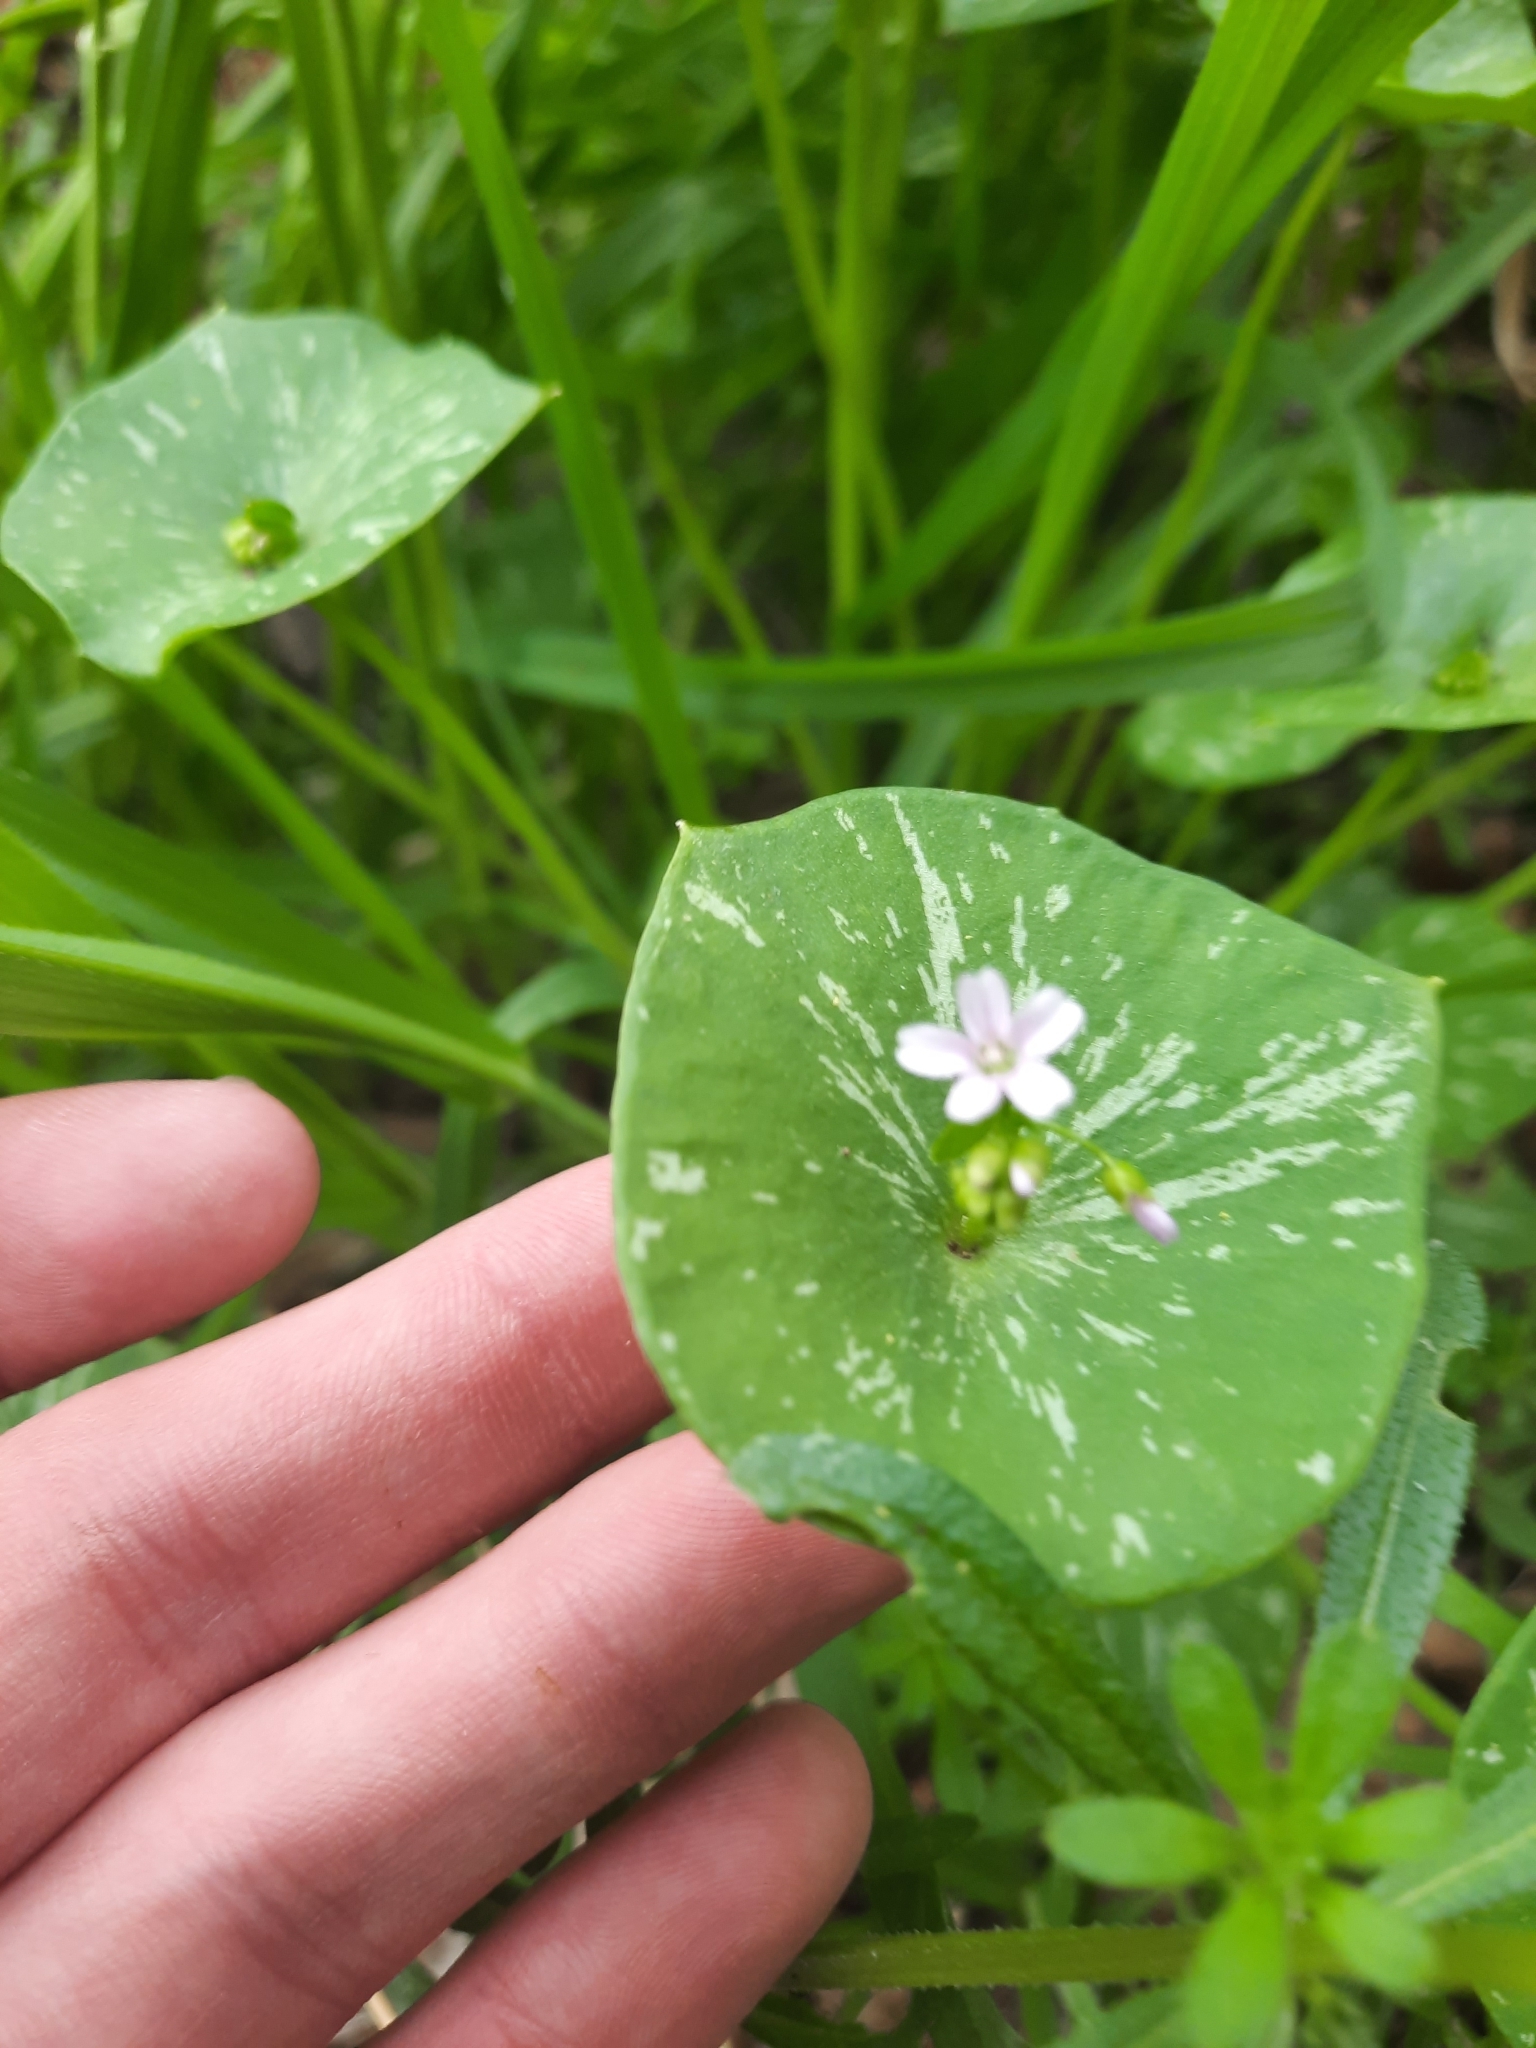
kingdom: Plantae
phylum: Tracheophyta
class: Magnoliopsida
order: Caryophyllales
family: Montiaceae
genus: Claytonia
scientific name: Claytonia perfoliata
